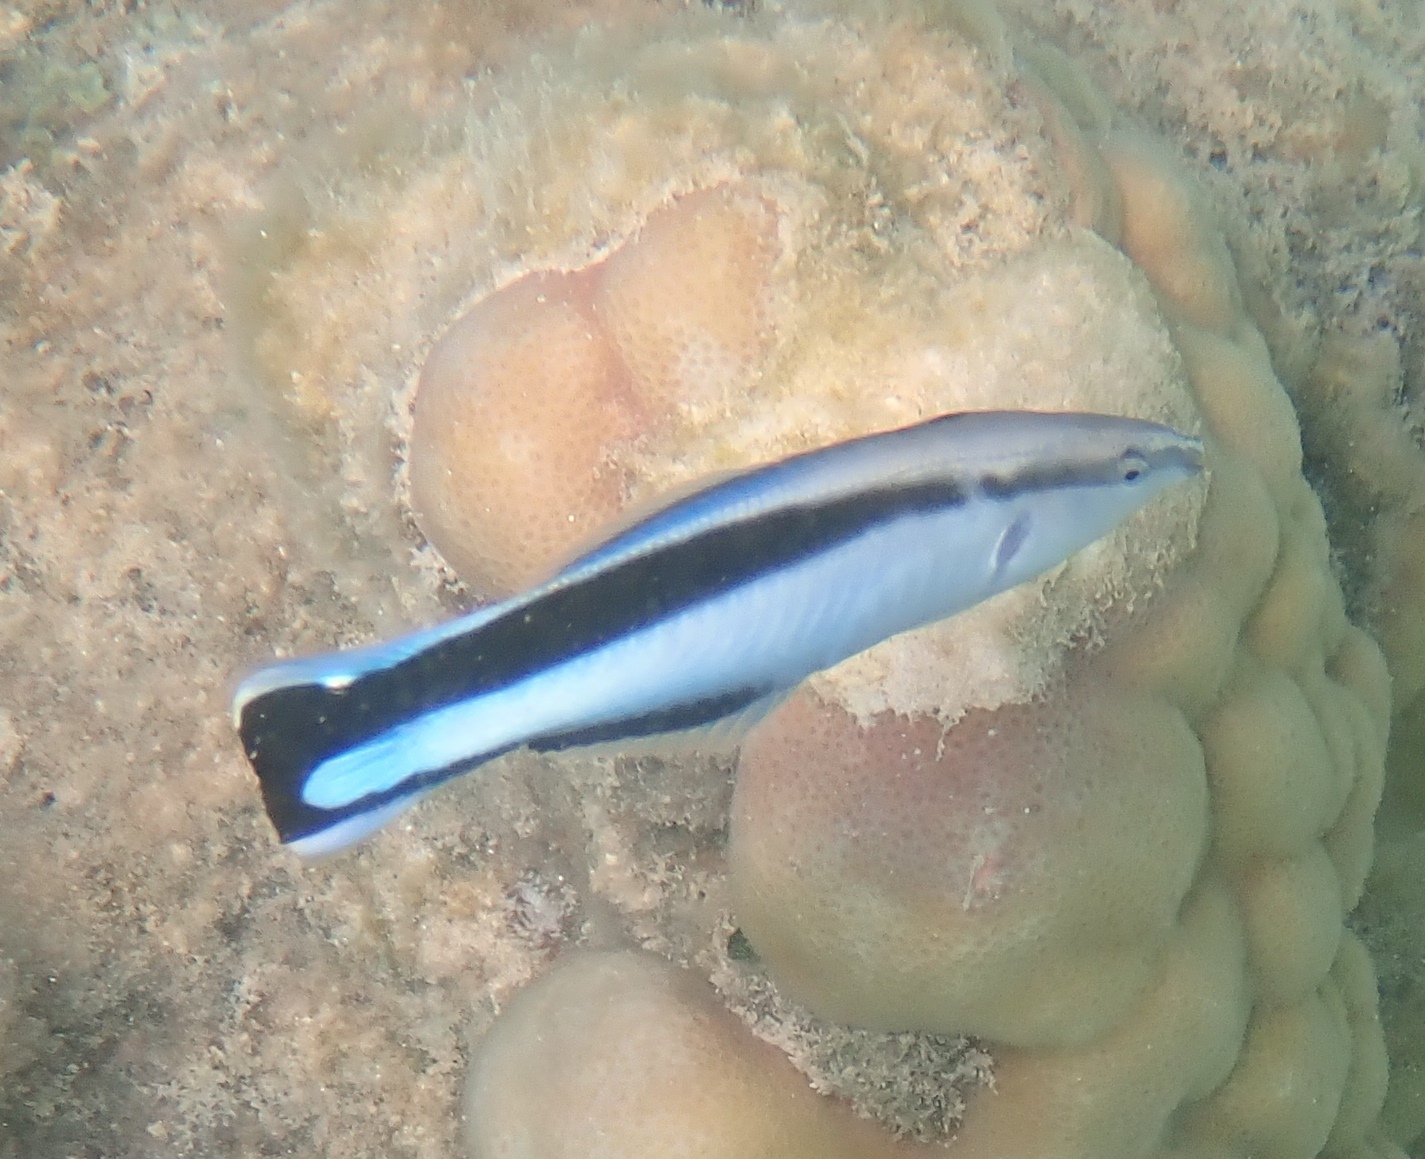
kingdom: Animalia
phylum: Chordata
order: Perciformes
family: Labridae
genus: Labroides
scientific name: Labroides dimidiatus
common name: Blue diesel wrasse
